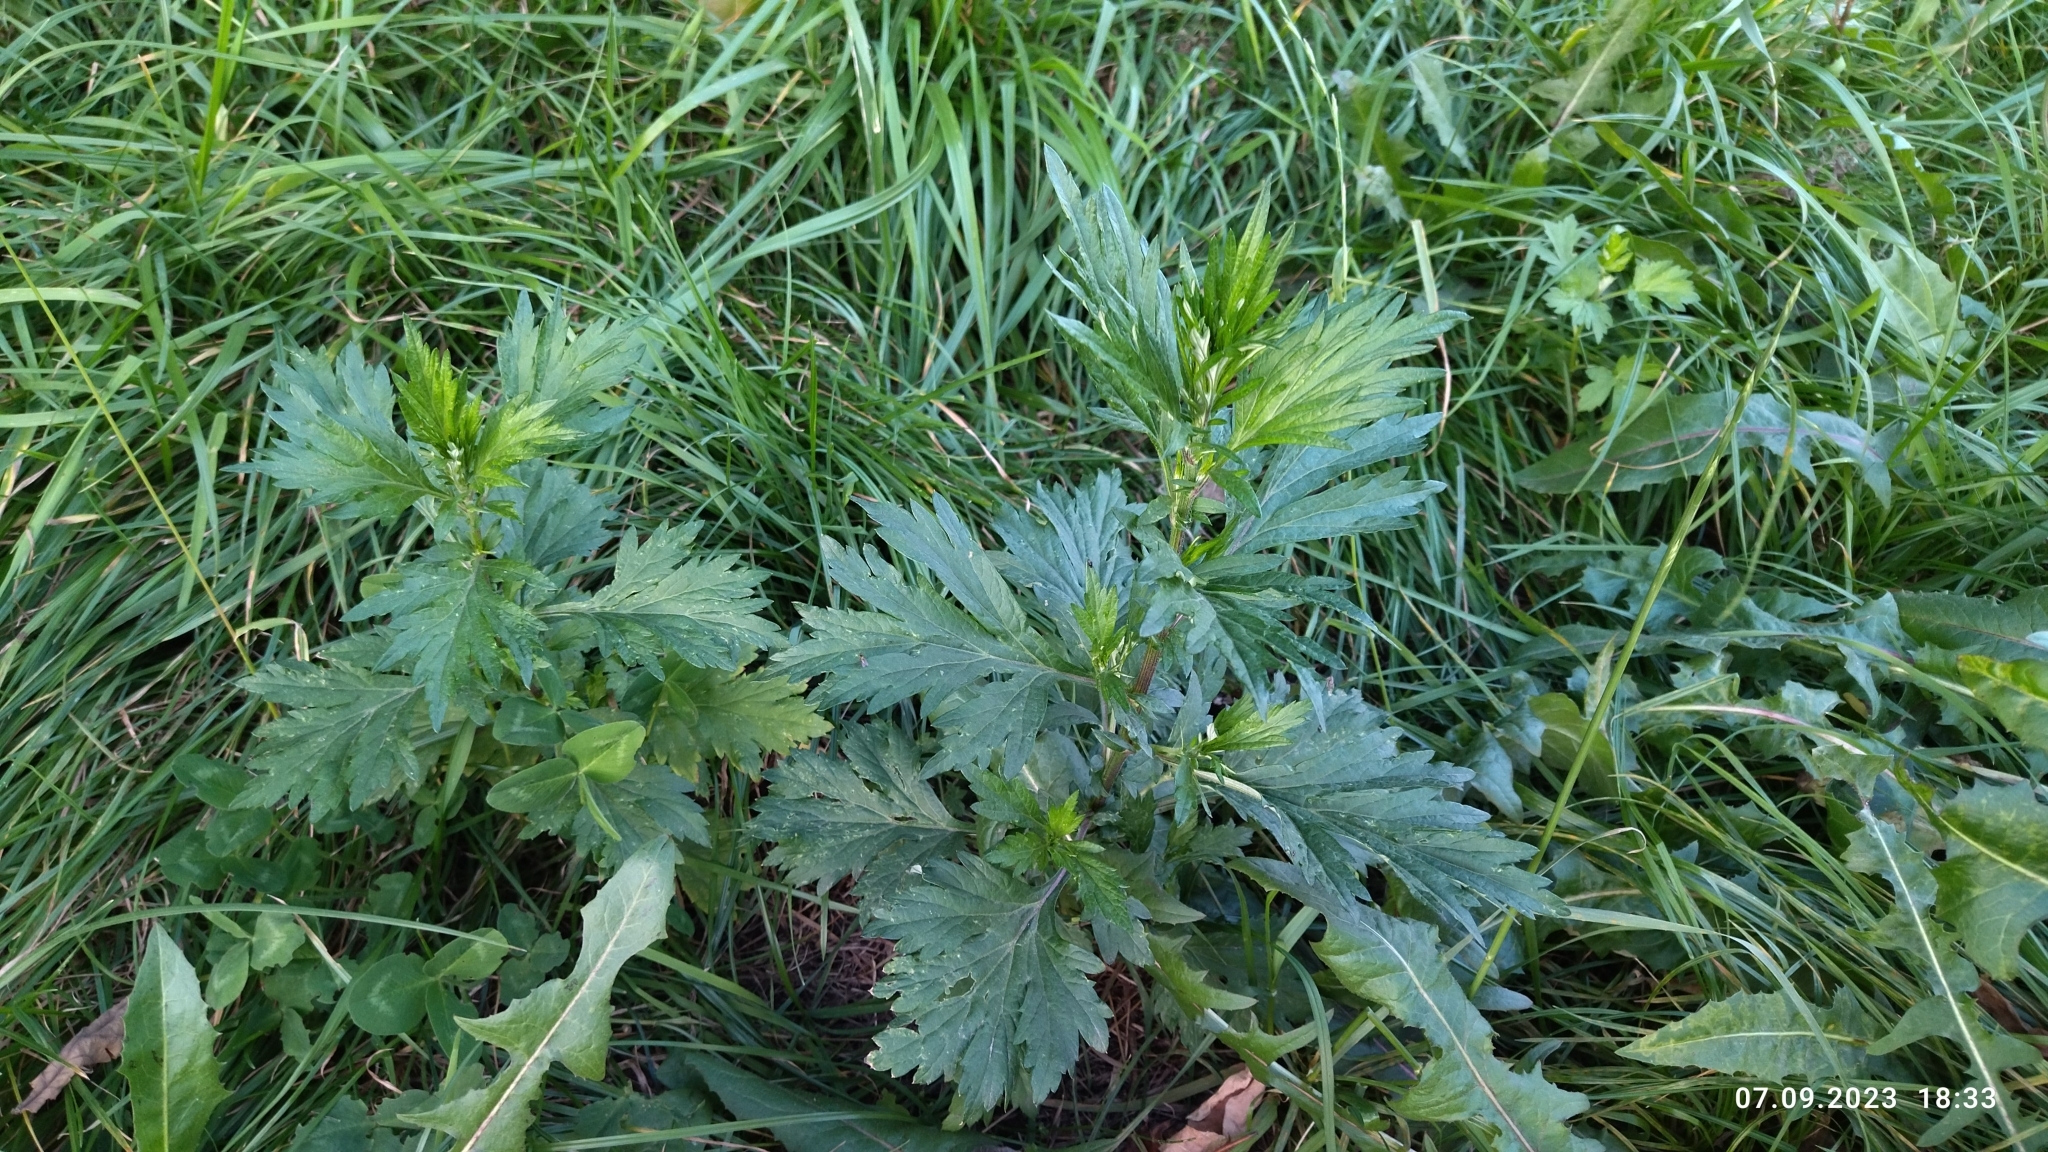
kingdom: Plantae
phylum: Tracheophyta
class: Magnoliopsida
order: Asterales
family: Asteraceae
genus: Artemisia
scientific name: Artemisia vulgaris
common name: Mugwort
